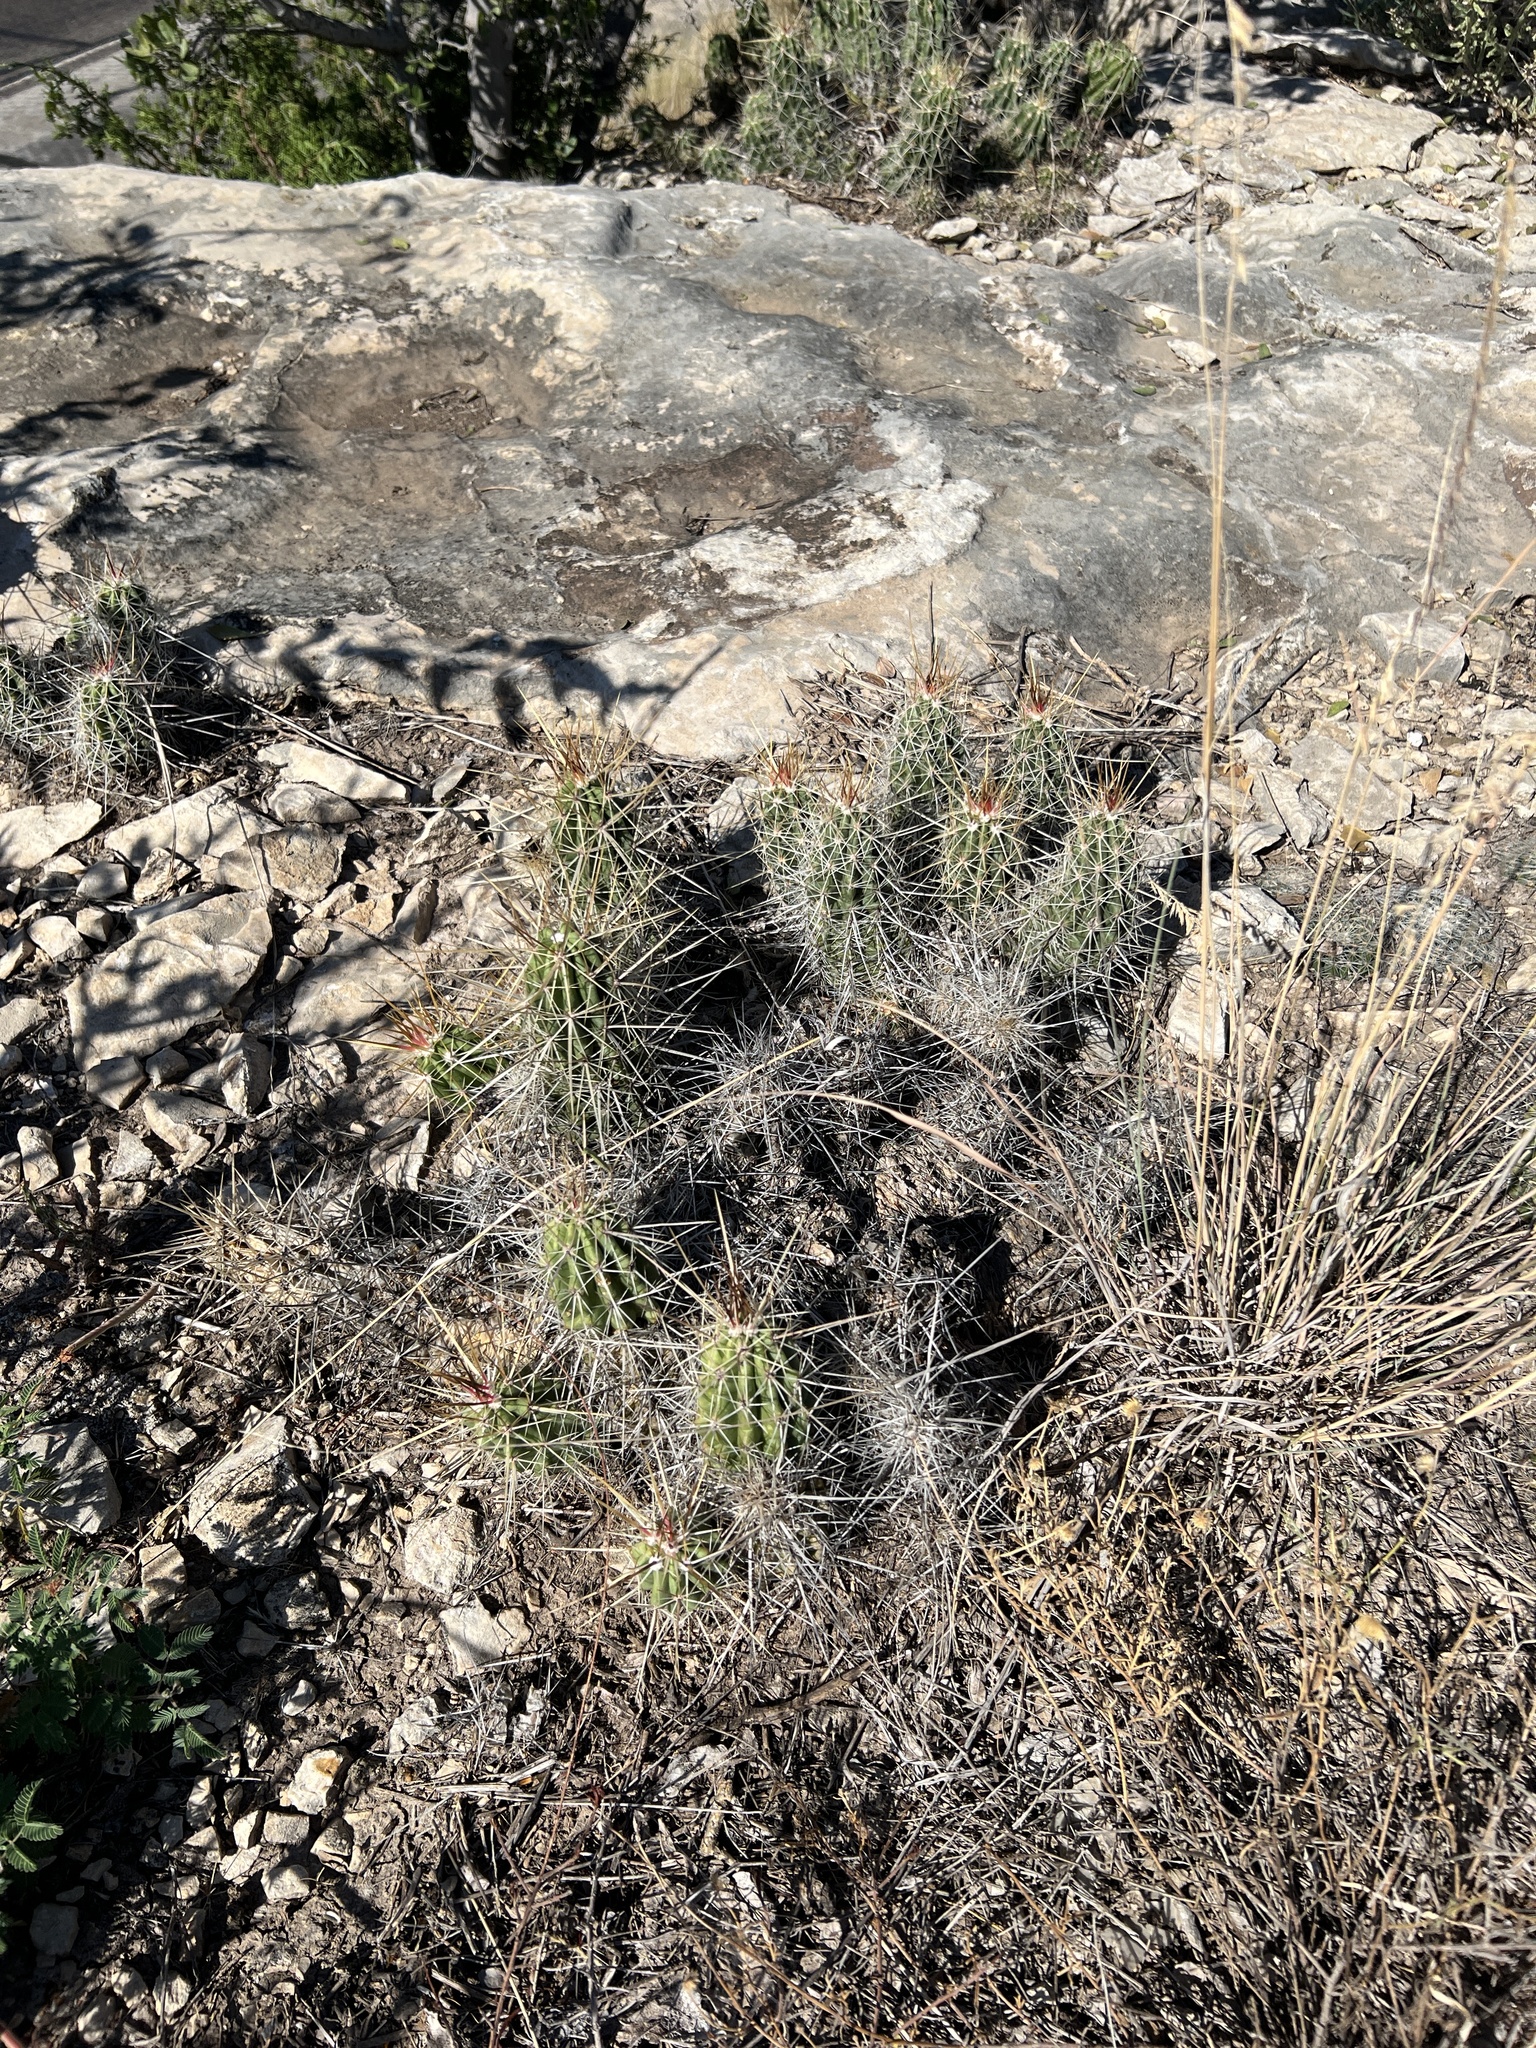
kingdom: Plantae
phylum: Tracheophyta
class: Magnoliopsida
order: Caryophyllales
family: Cactaceae
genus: Echinocereus
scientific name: Echinocereus enneacanthus
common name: Pitaya
